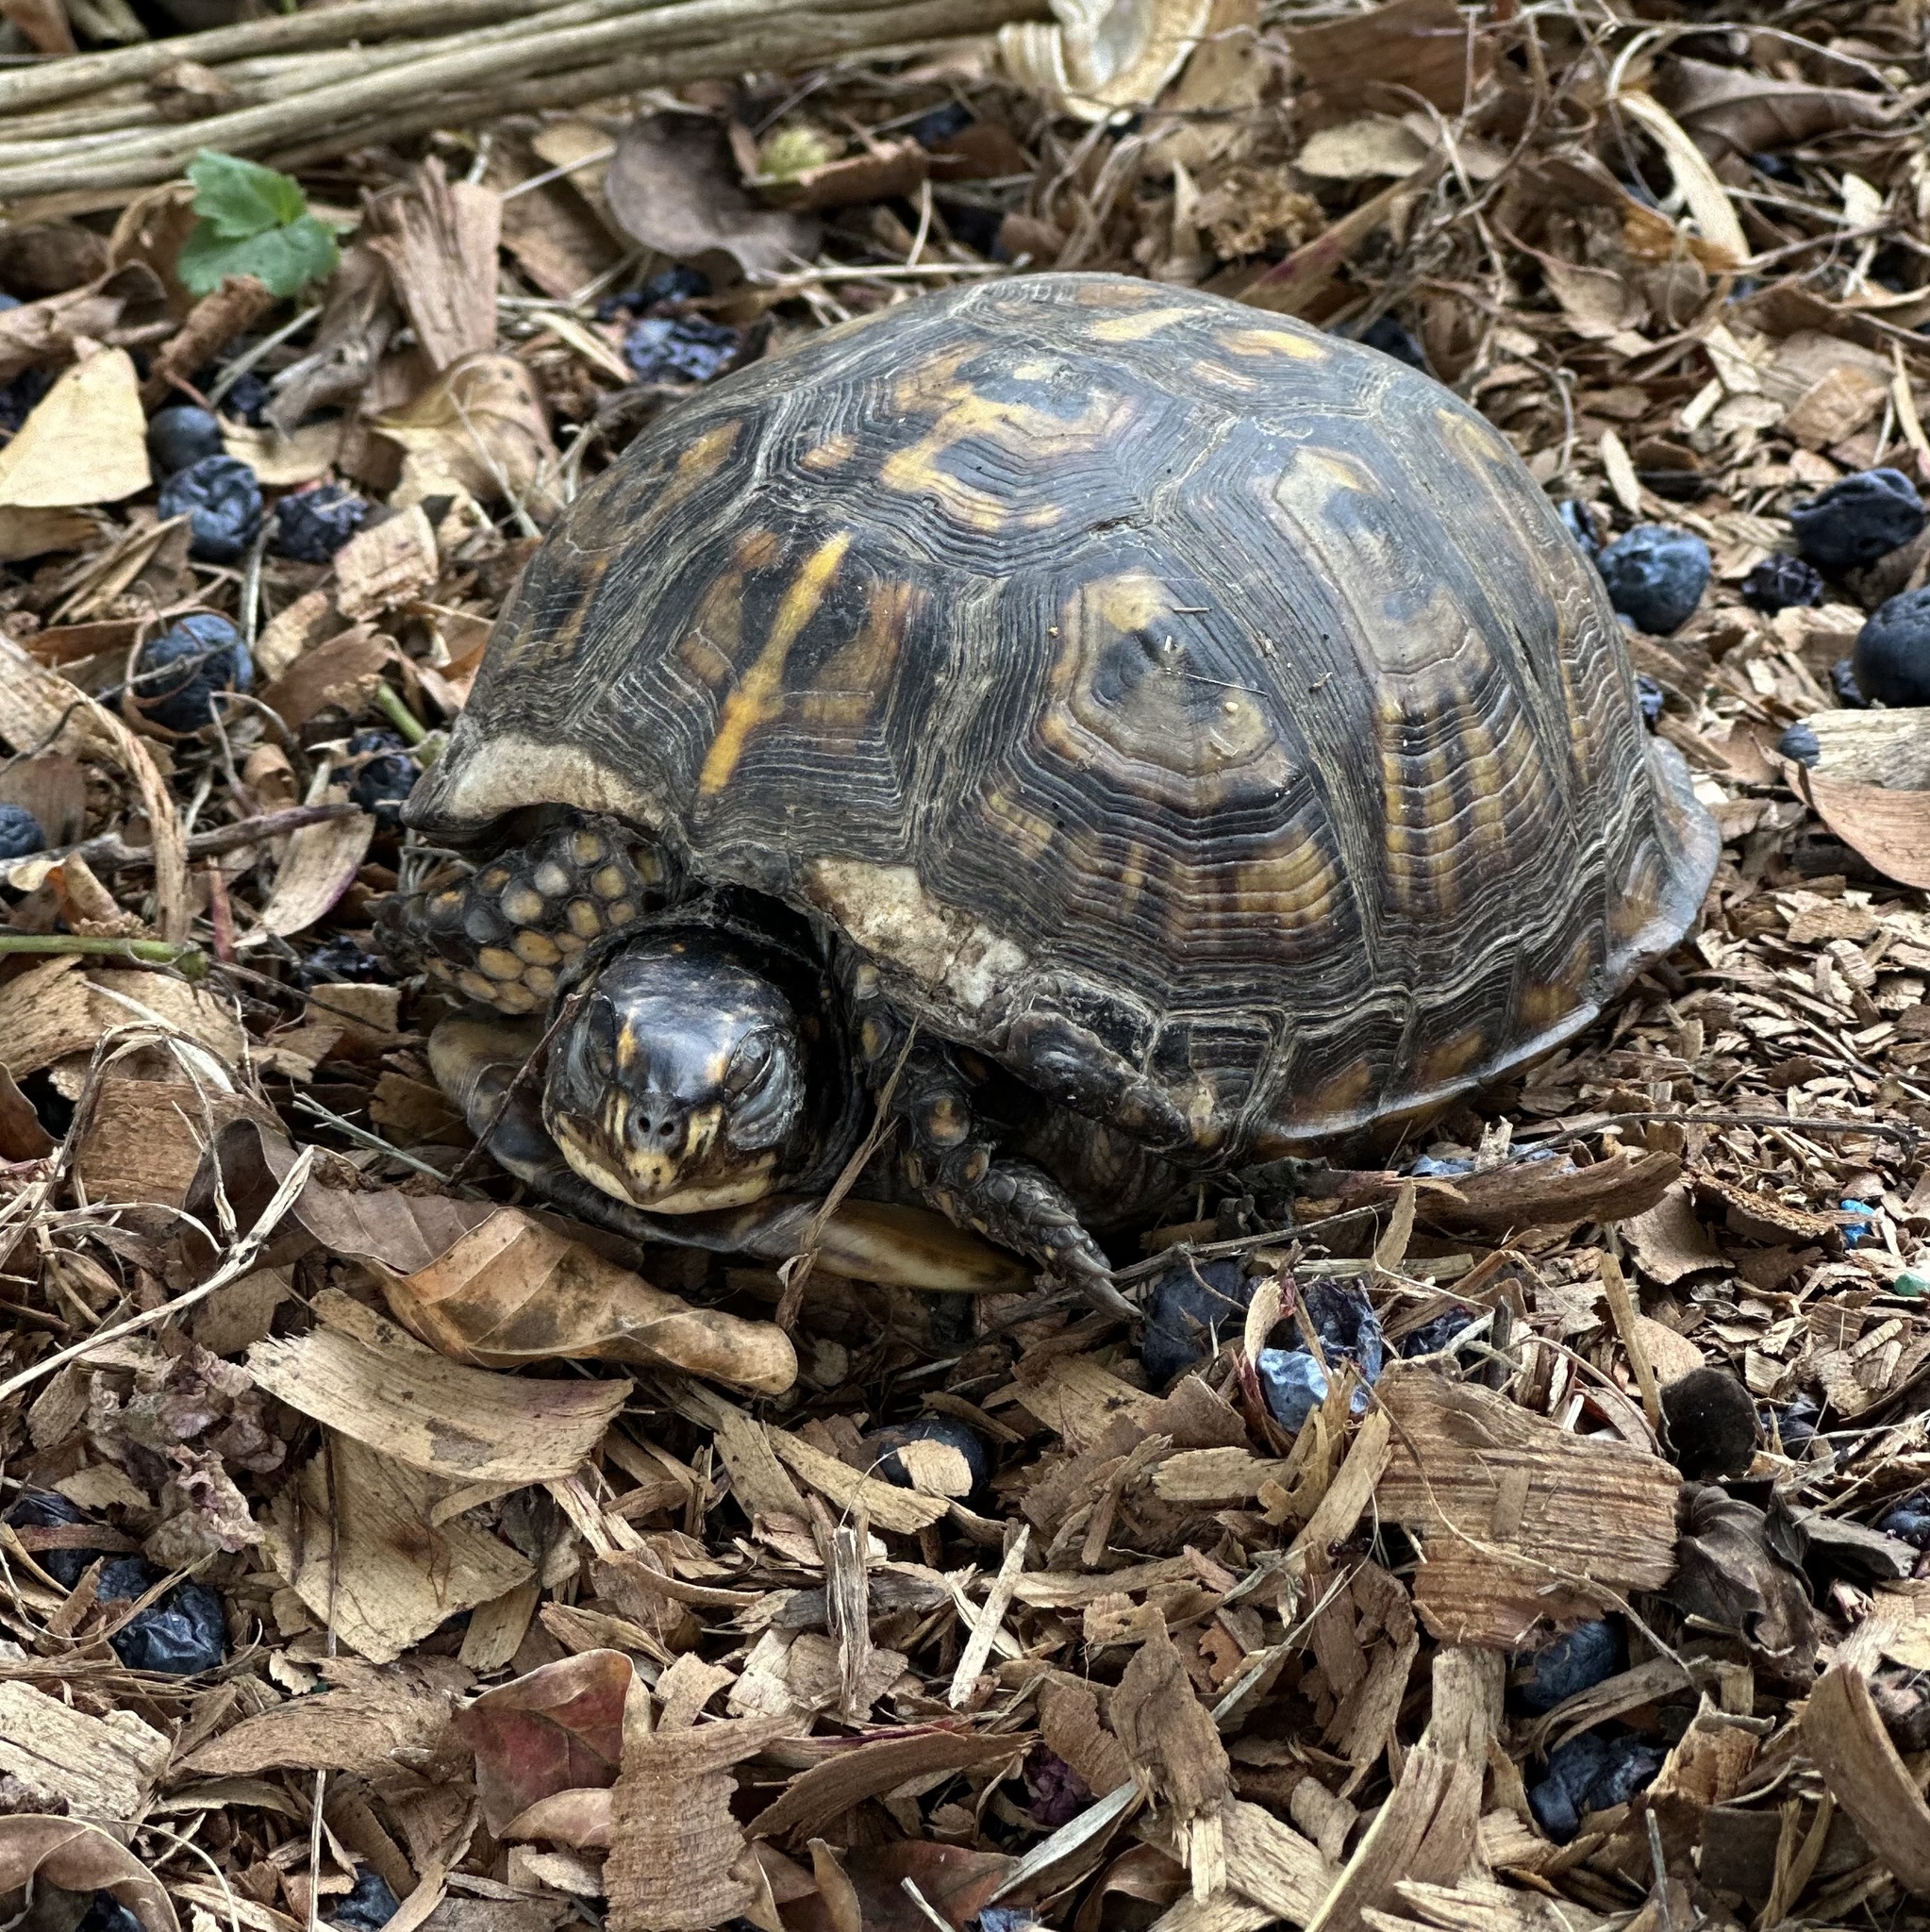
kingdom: Animalia
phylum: Chordata
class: Testudines
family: Emydidae
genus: Terrapene
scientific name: Terrapene carolina
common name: Common box turtle
